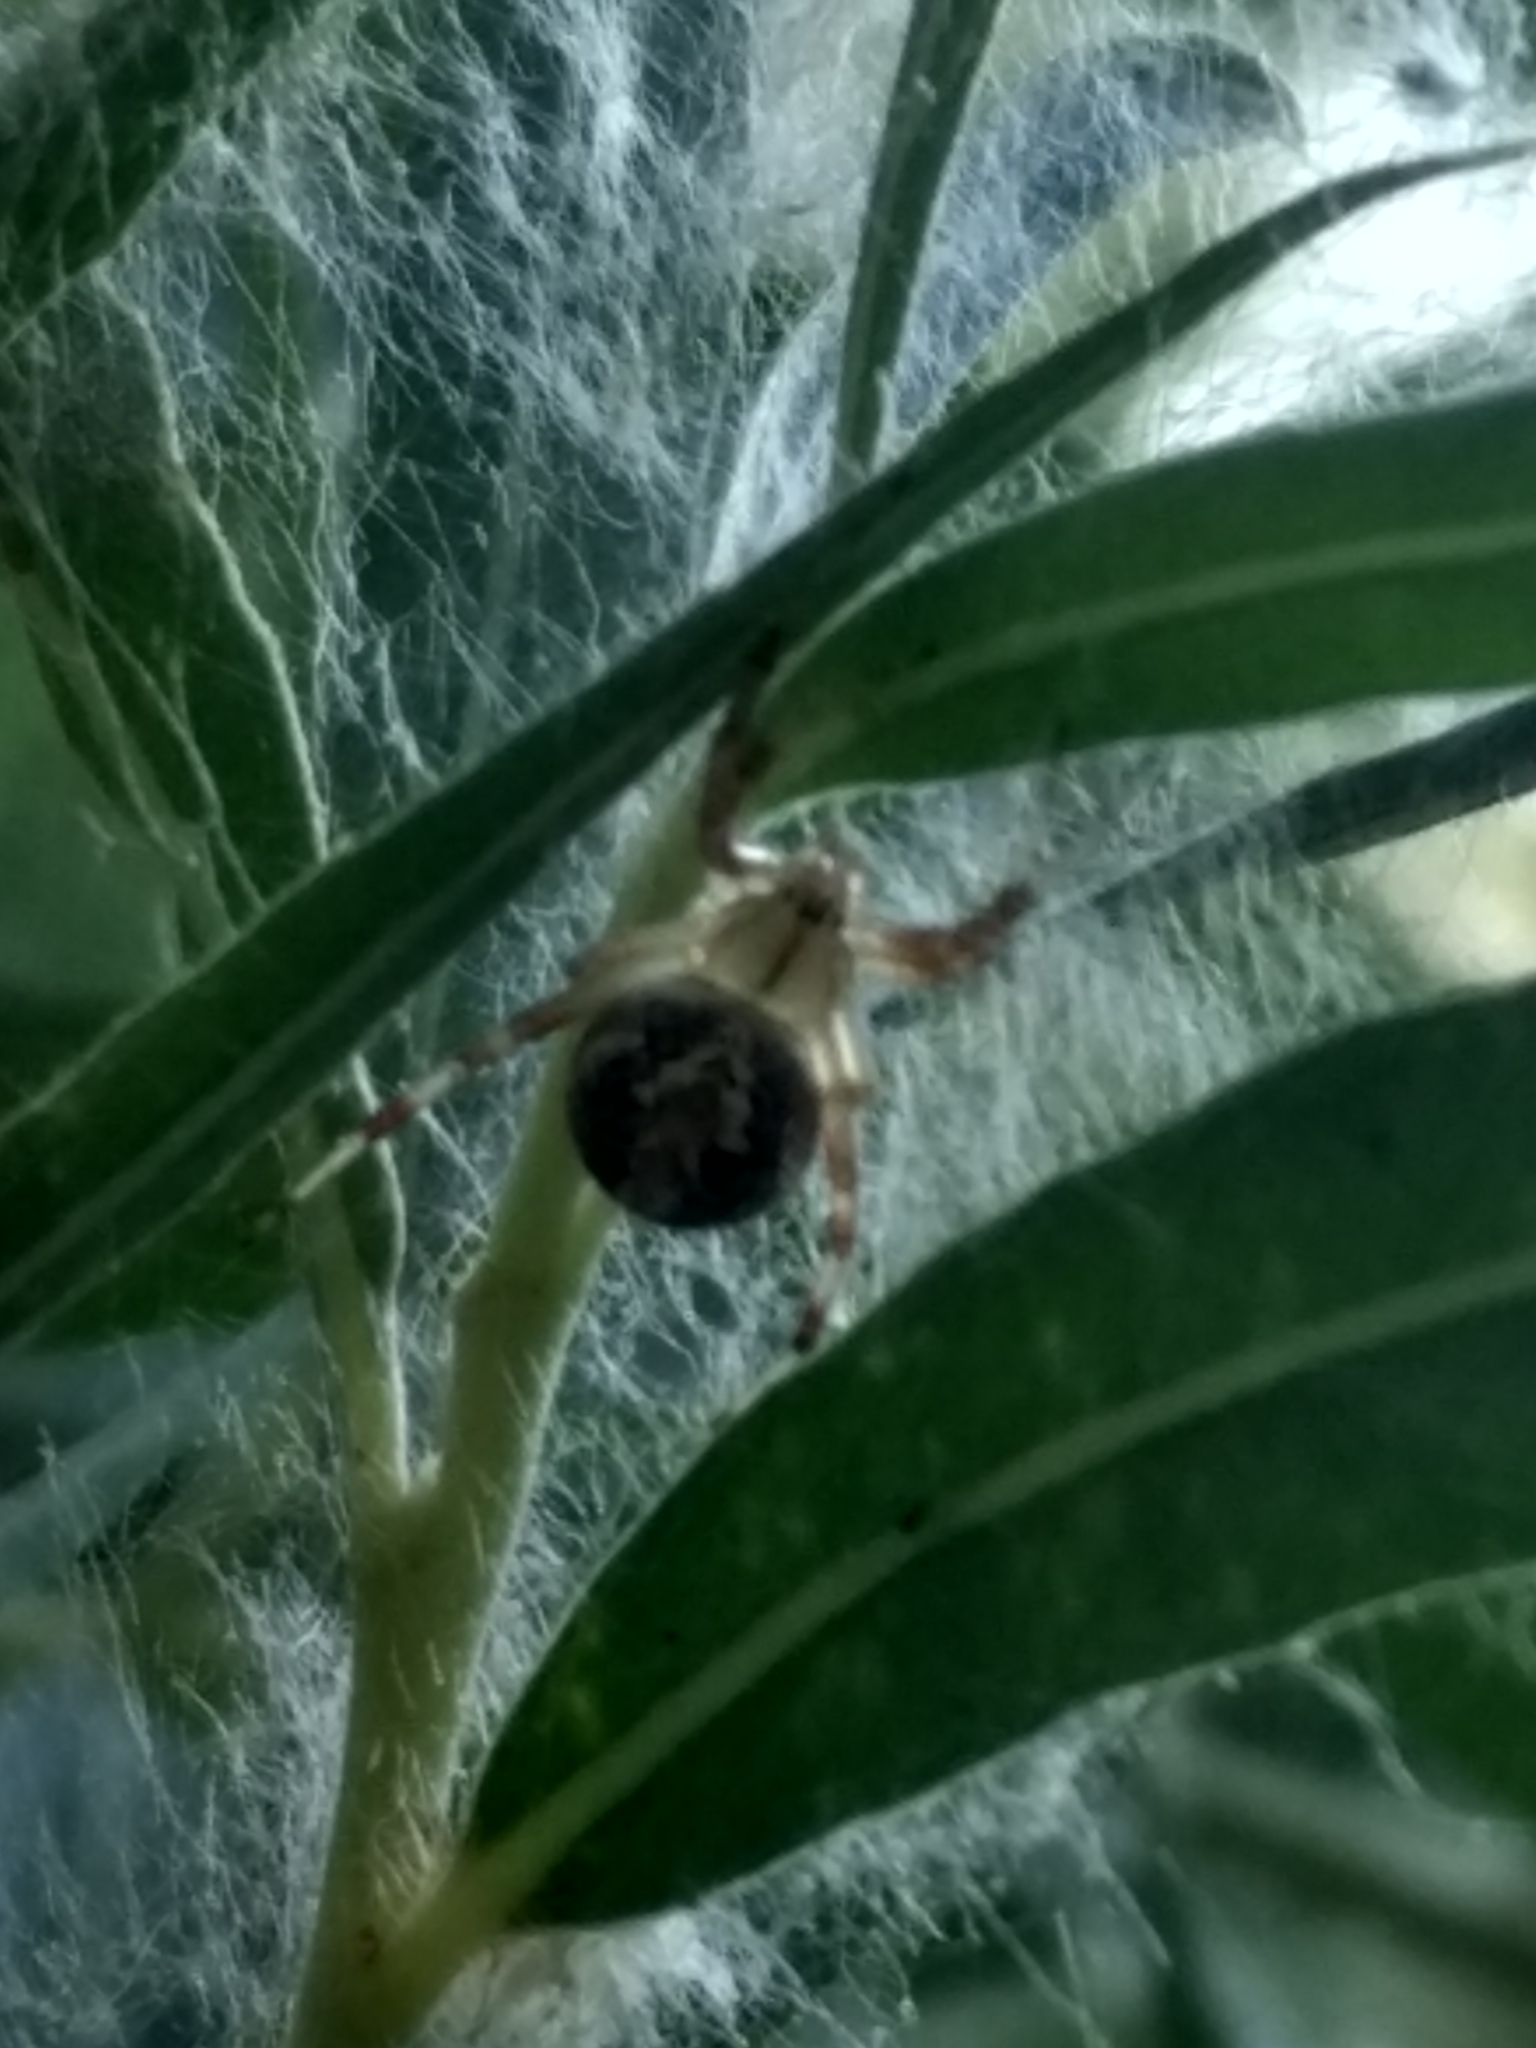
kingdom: Animalia
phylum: Arthropoda
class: Arachnida
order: Araneae
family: Araneidae
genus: Neoscona
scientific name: Neoscona oaxacensis
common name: Orb weavers
